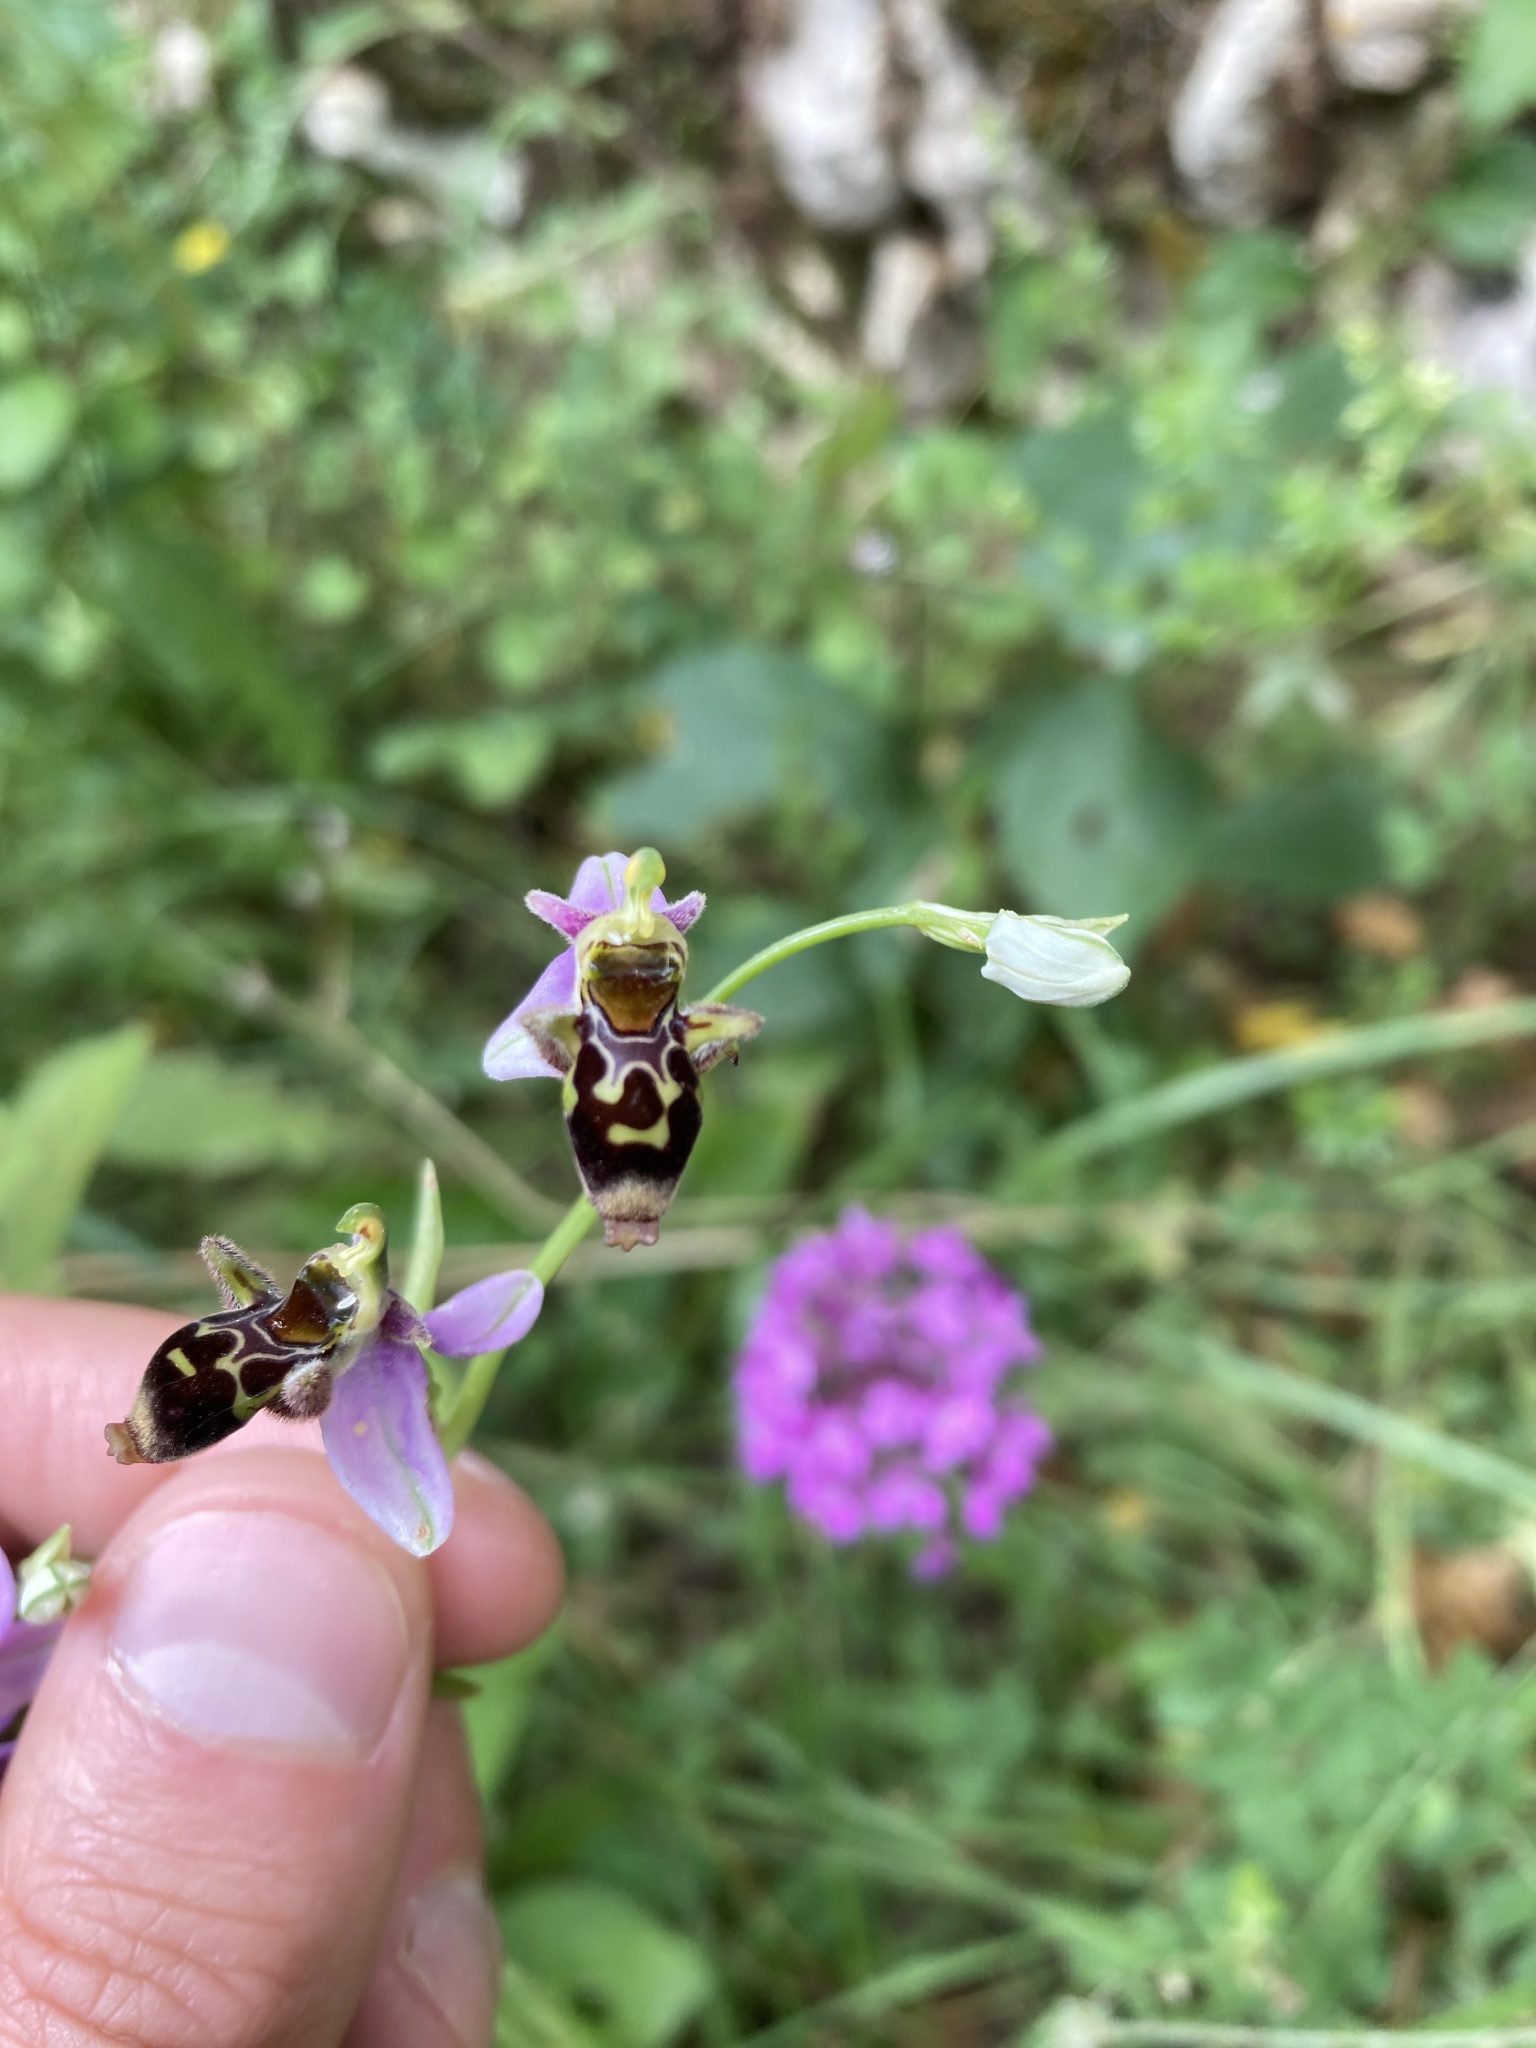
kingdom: Plantae
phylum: Tracheophyta
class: Liliopsida
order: Asparagales
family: Orchidaceae
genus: Ophrys
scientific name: Ophrys scolopax
